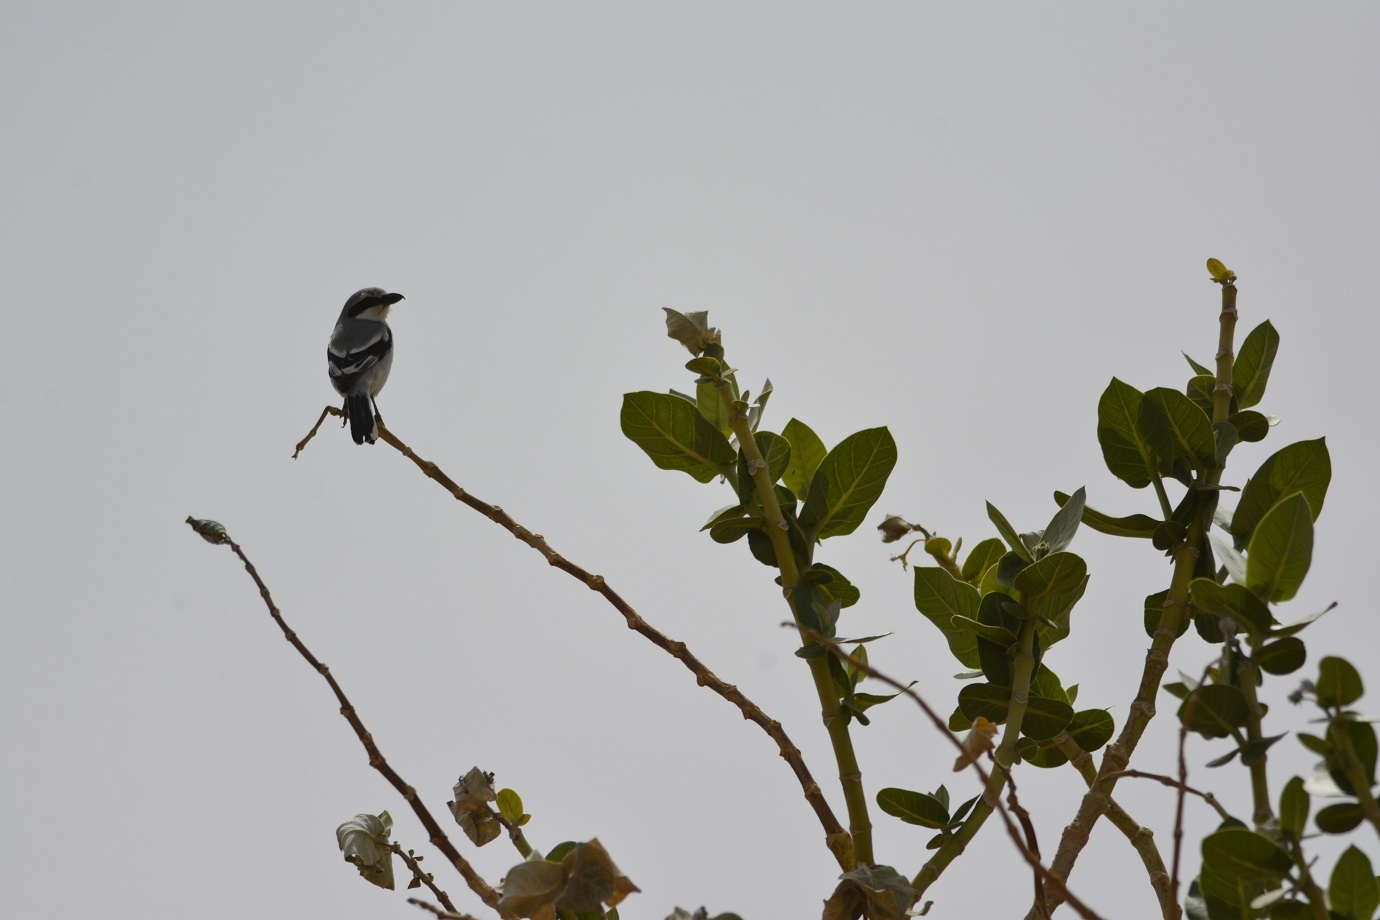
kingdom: Animalia
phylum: Chordata
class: Aves
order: Passeriformes
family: Laniidae
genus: Lanius
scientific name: Lanius excubitor
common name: Great grey shrike
